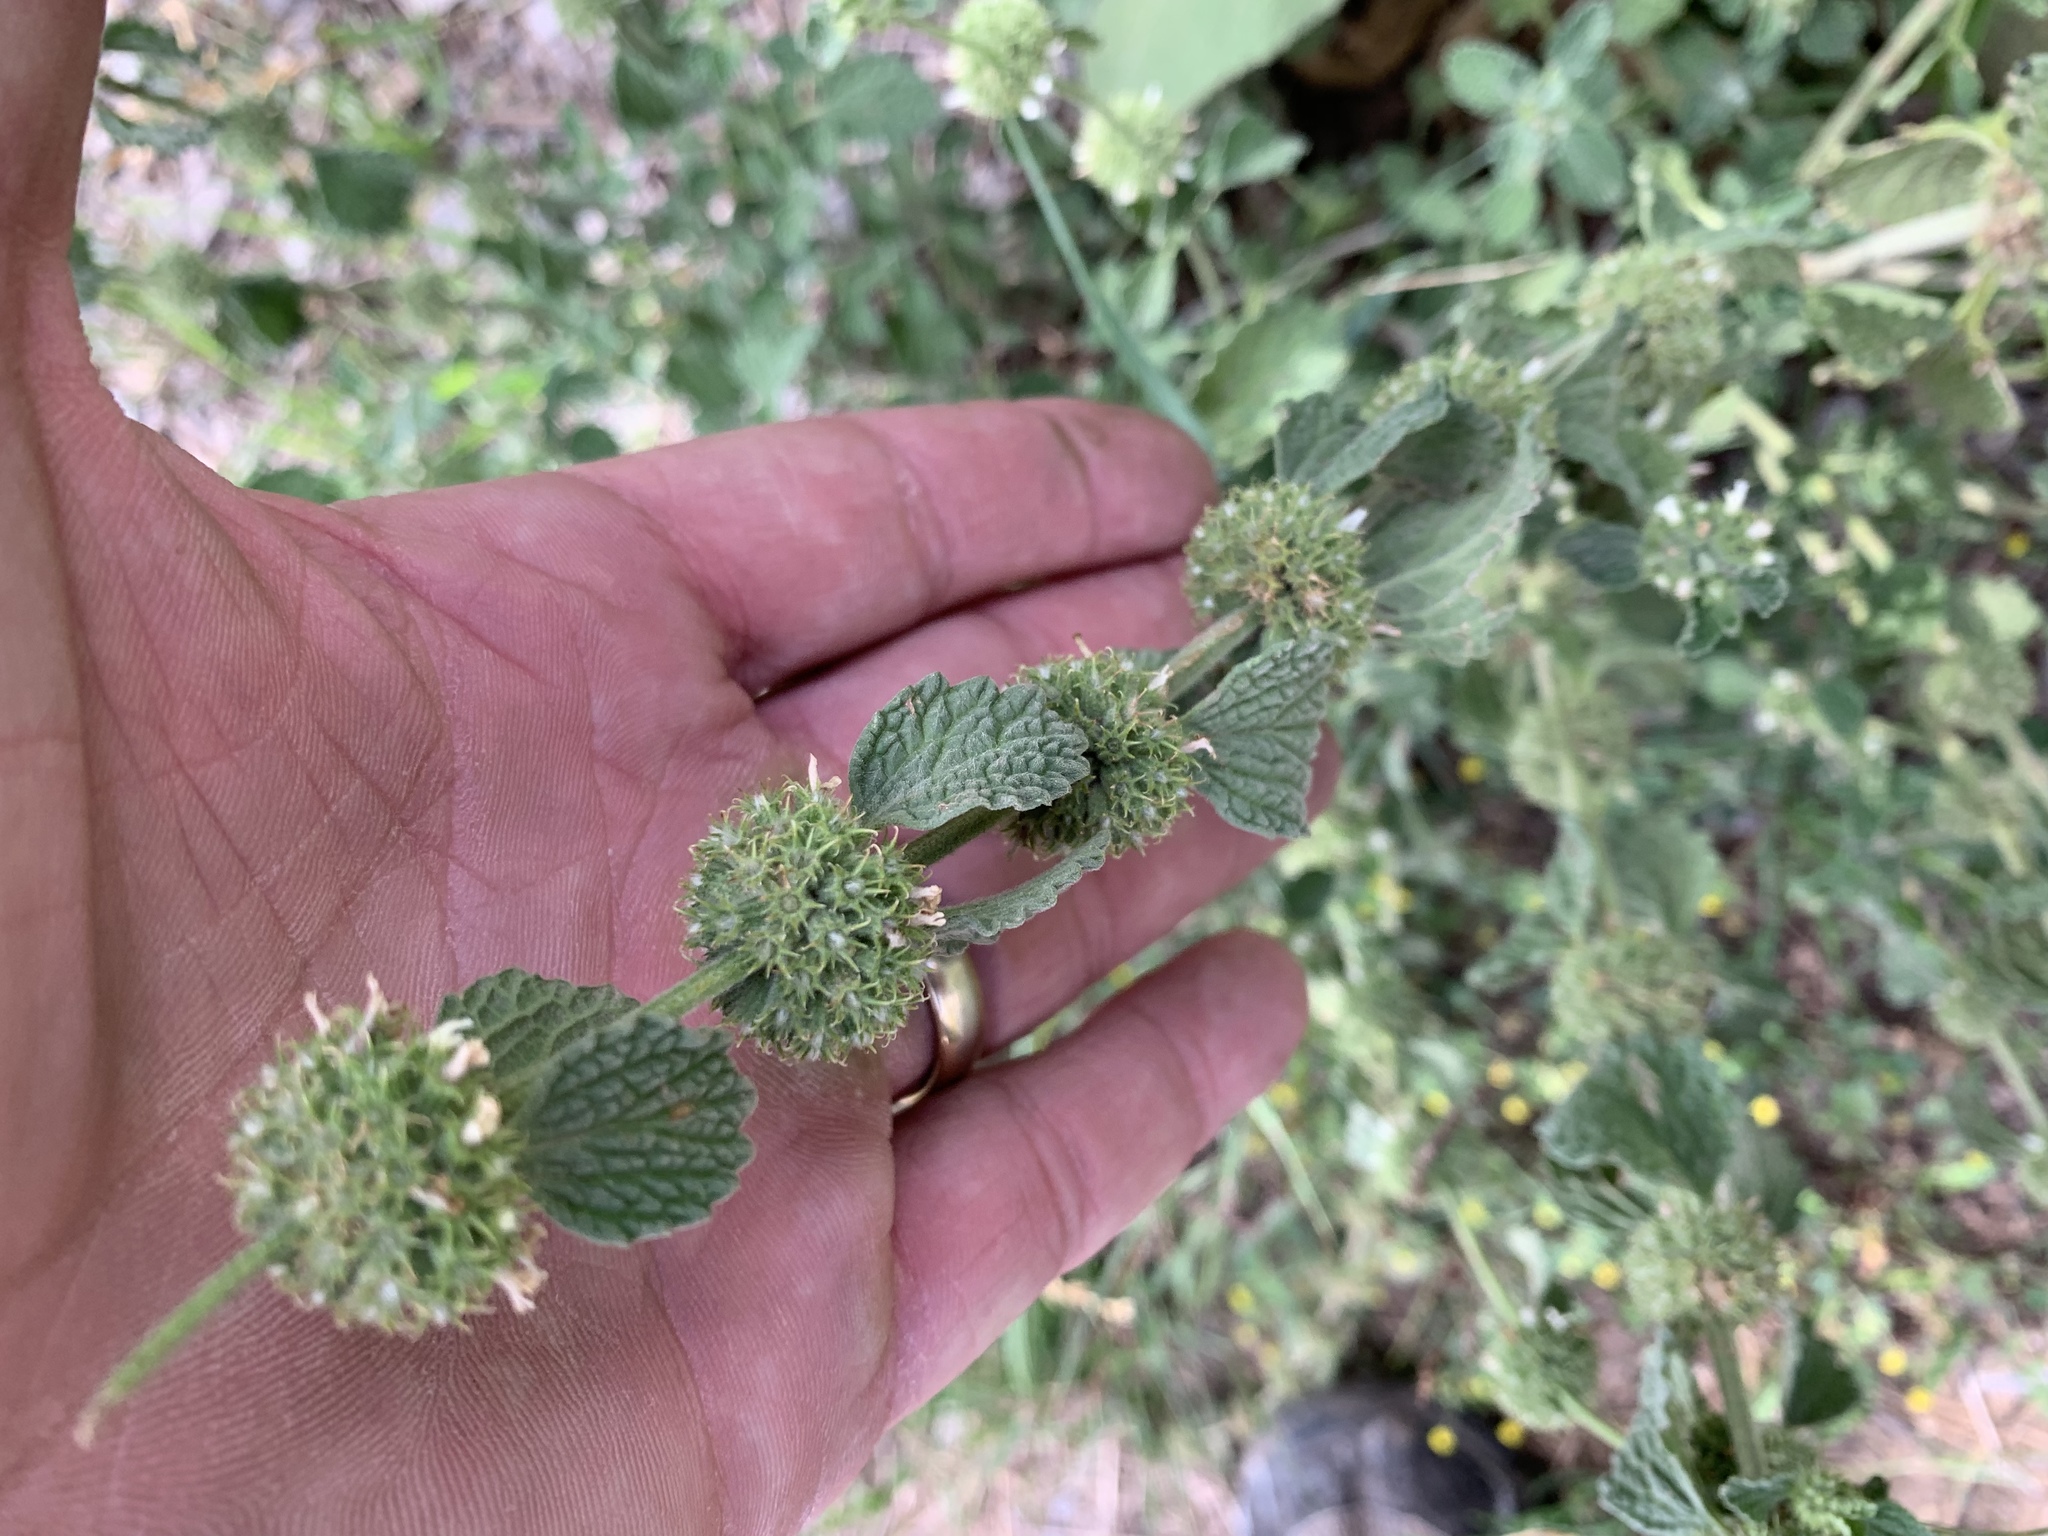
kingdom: Plantae
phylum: Tracheophyta
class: Magnoliopsida
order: Lamiales
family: Lamiaceae
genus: Marrubium
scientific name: Marrubium vulgare
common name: Horehound
